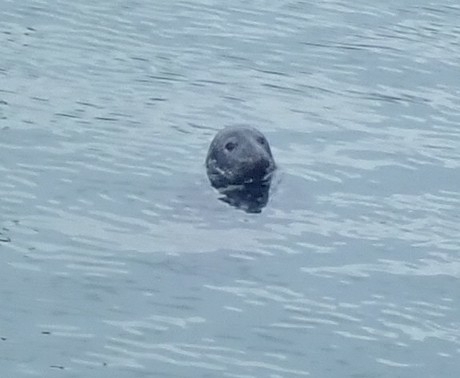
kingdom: Animalia
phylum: Chordata
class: Mammalia
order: Carnivora
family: Phocidae
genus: Halichoerus
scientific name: Halichoerus grypus
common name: Grey seal
